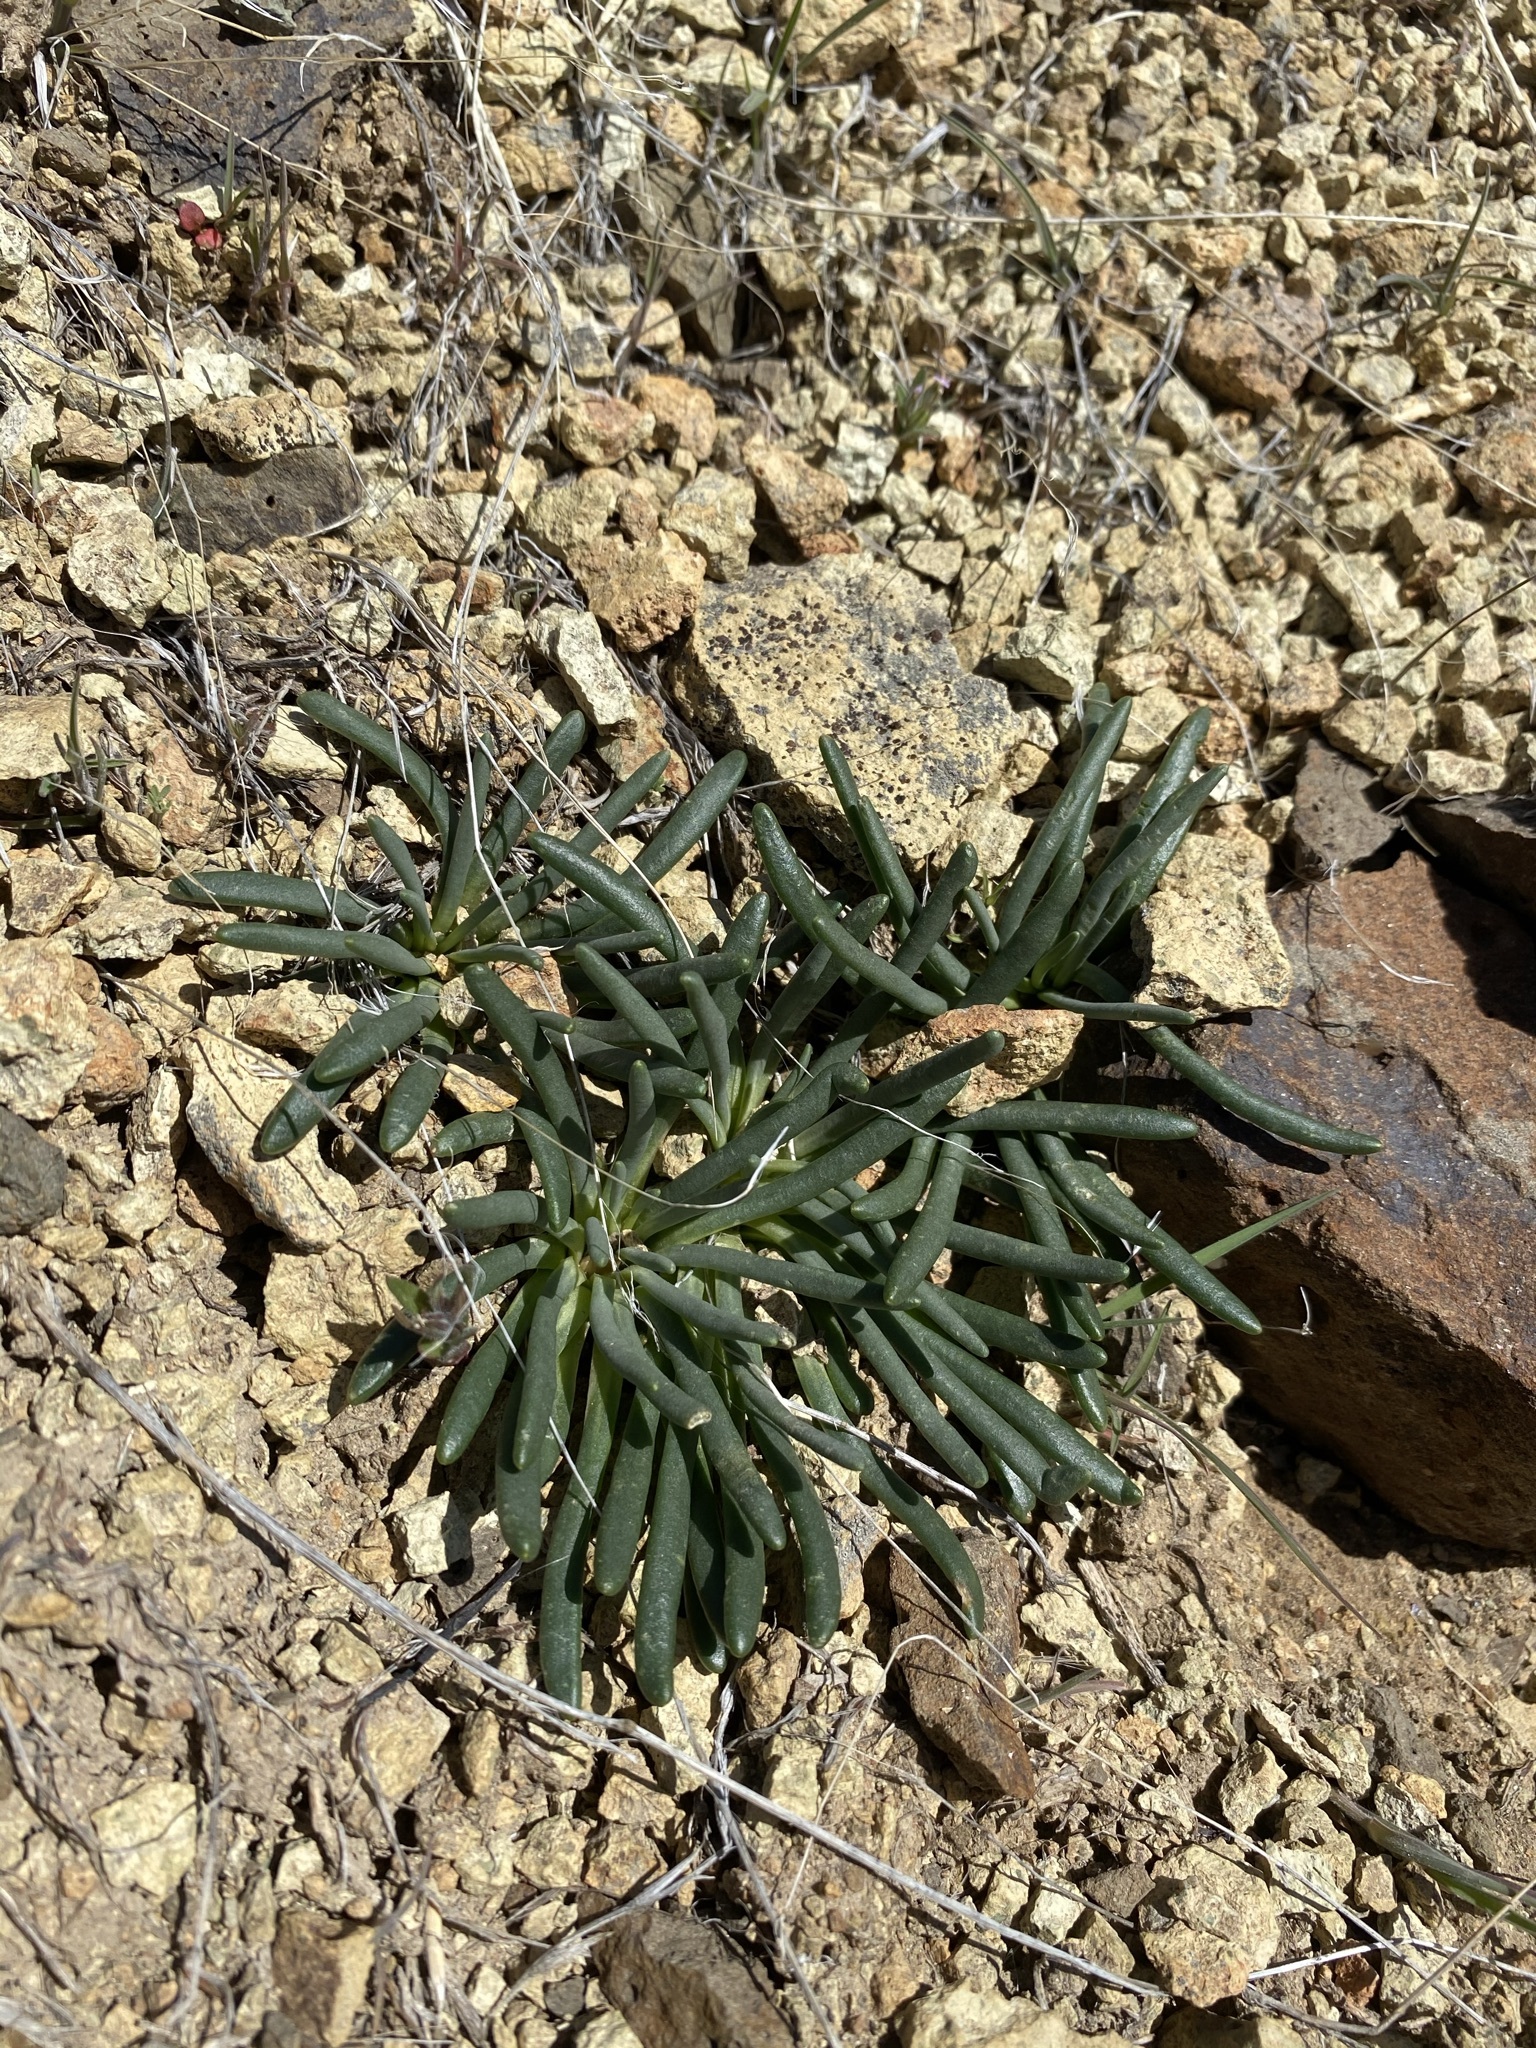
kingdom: Plantae
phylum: Tracheophyta
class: Magnoliopsida
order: Caryophyllales
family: Montiaceae
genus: Lewisia
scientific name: Lewisia rediviva
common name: Bitter-root
